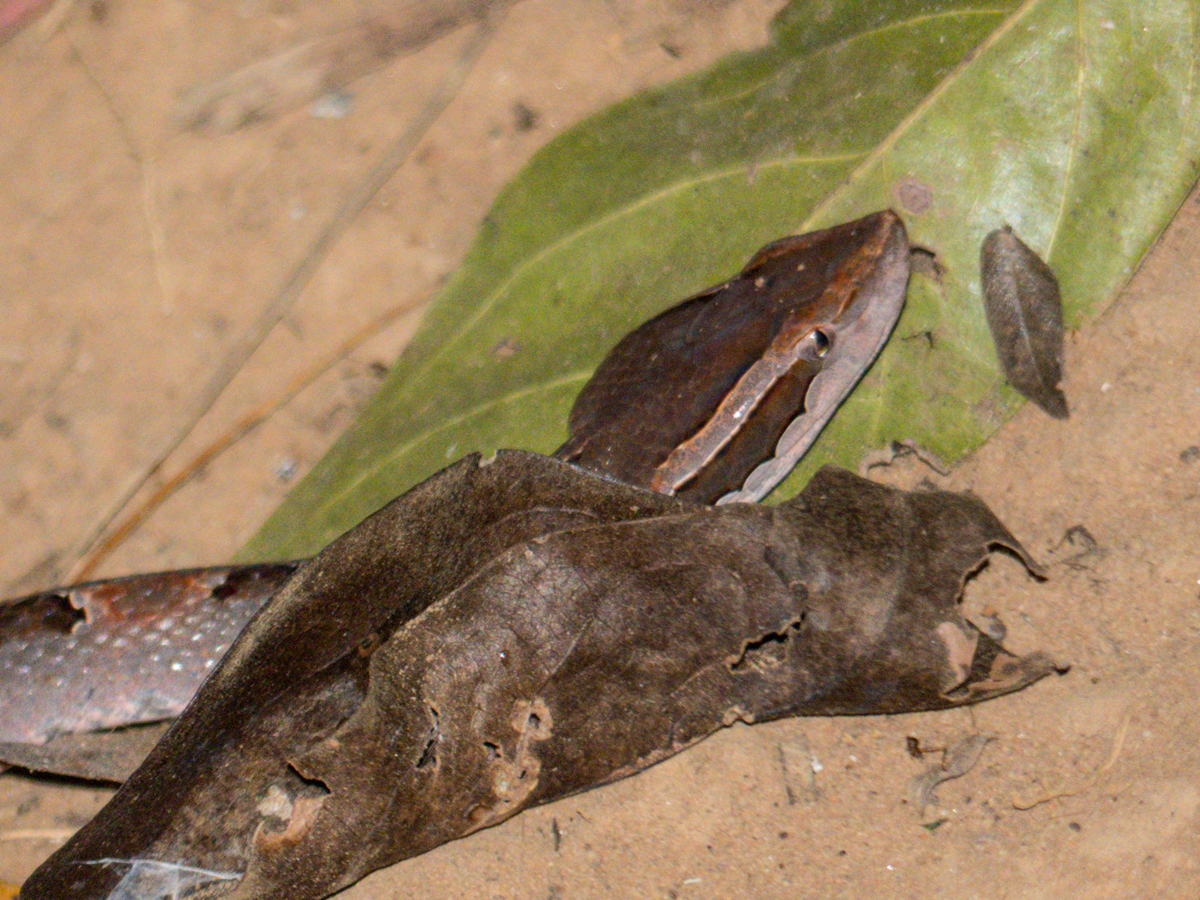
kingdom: Animalia
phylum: Chordata
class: Squamata
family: Viperidae
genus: Calloselasma
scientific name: Calloselasma rhodostoma
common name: Malayan pit viper
